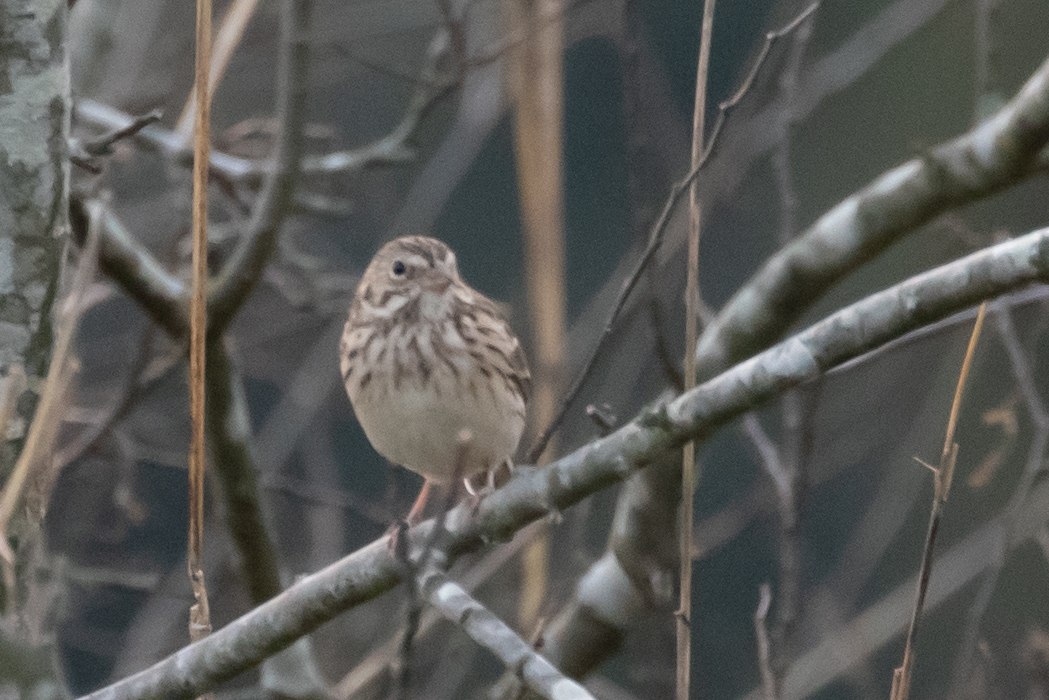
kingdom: Animalia
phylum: Chordata
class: Aves
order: Passeriformes
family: Passerellidae
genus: Pooecetes
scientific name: Pooecetes gramineus
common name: Vesper sparrow
